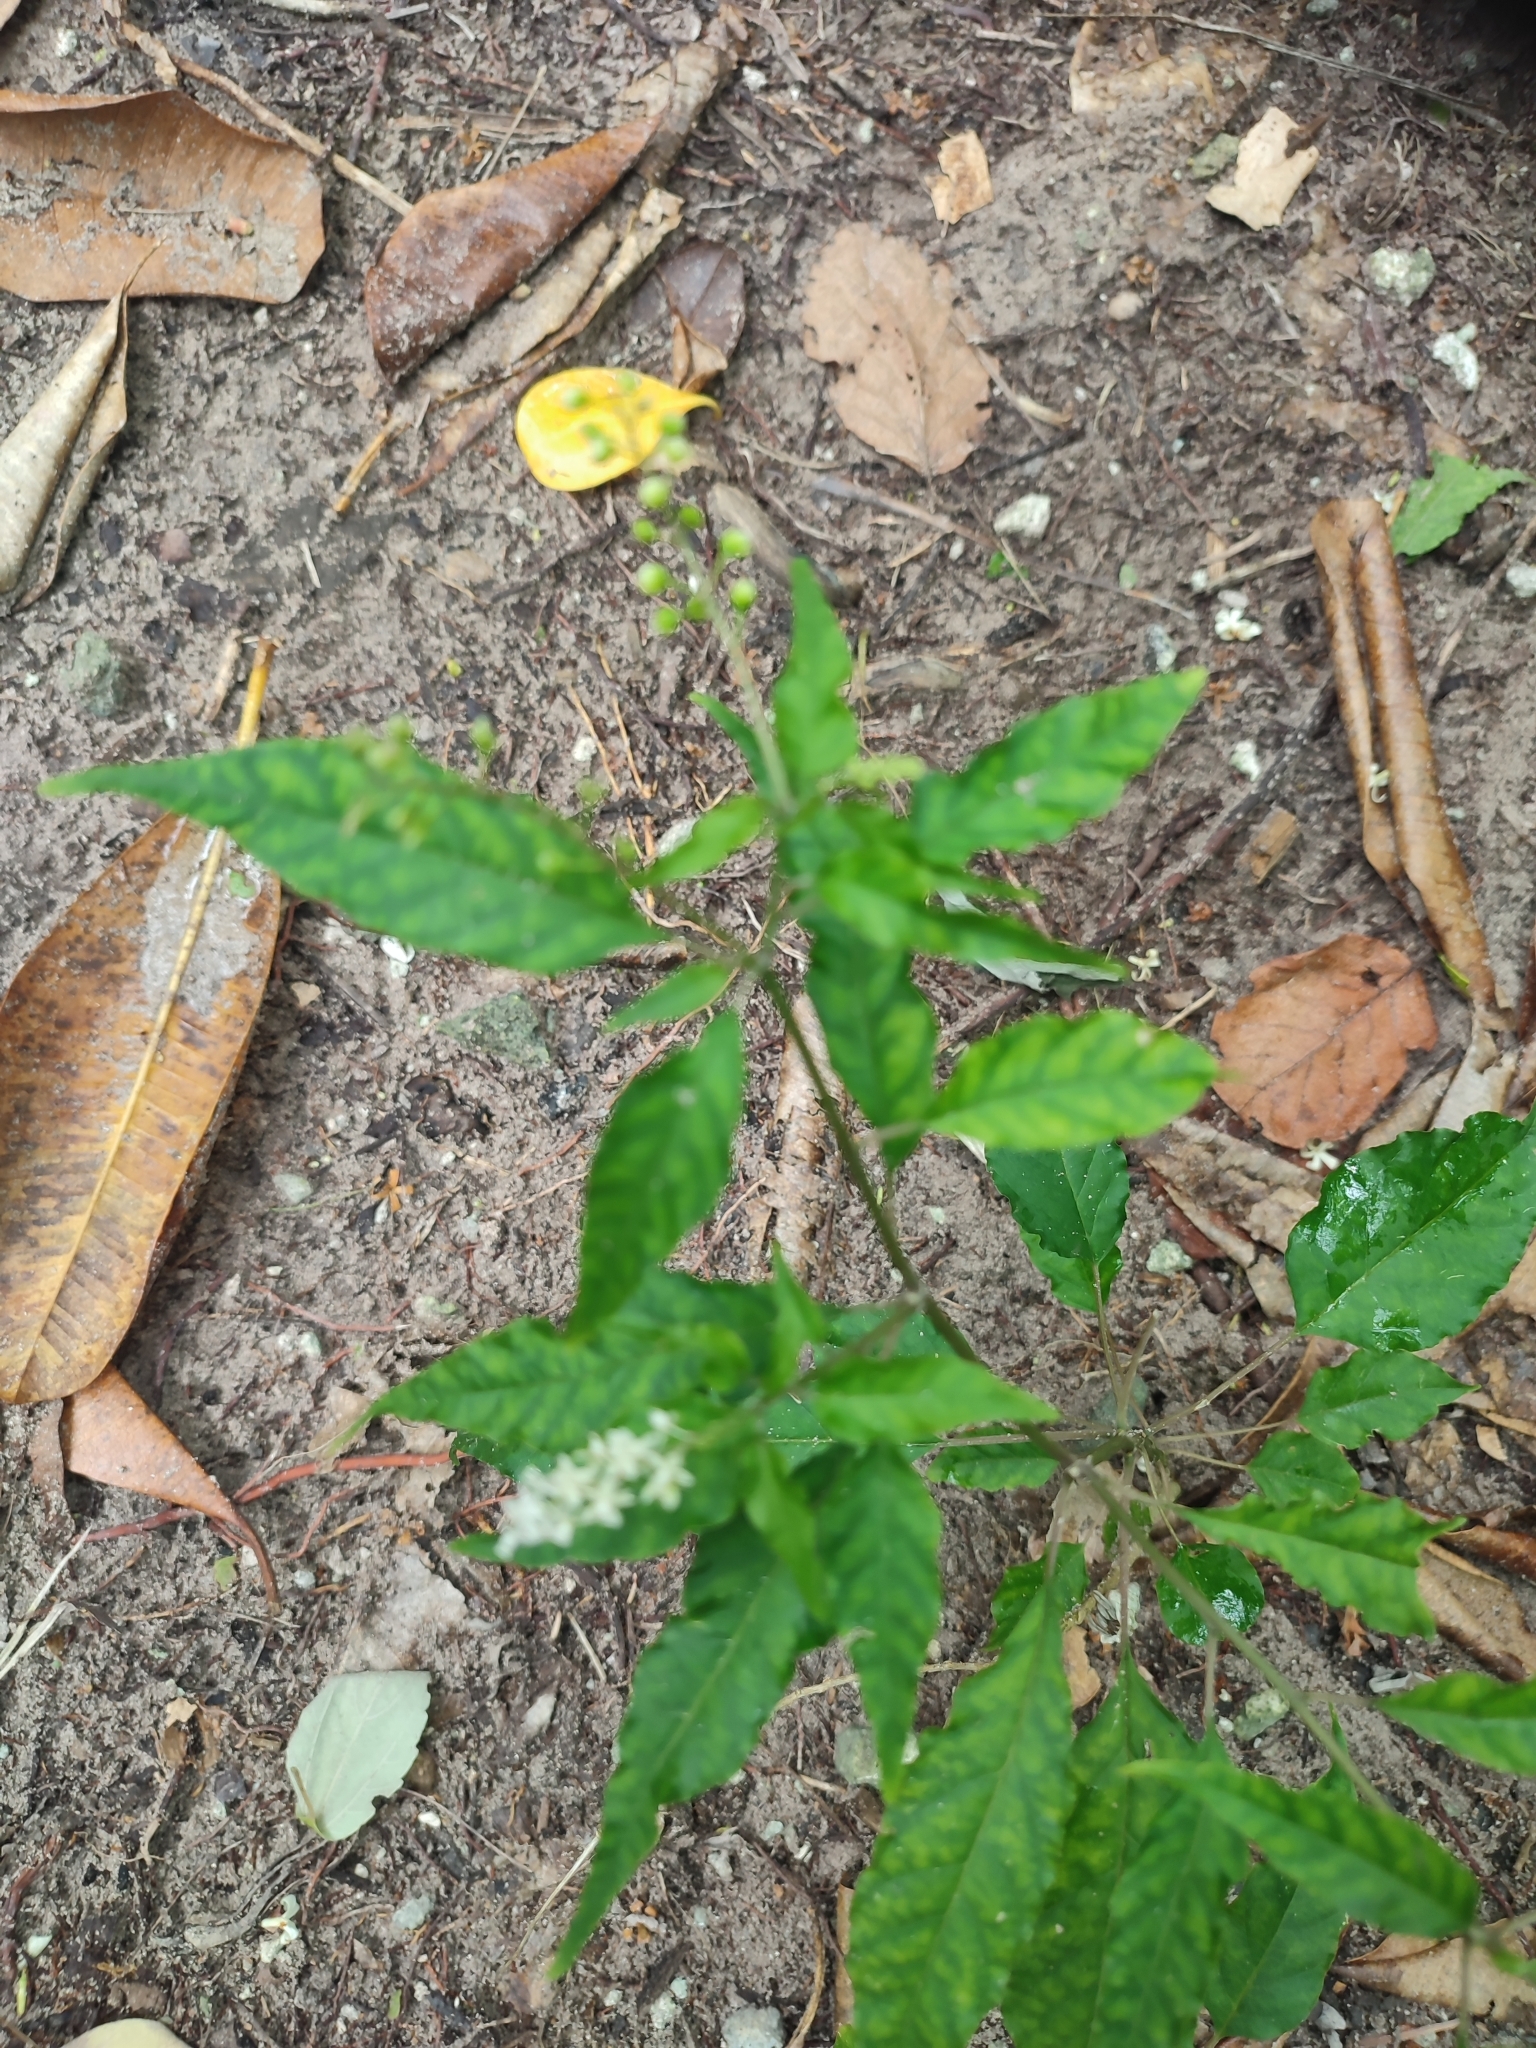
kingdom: Plantae
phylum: Tracheophyta
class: Magnoliopsida
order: Caryophyllales
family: Phytolaccaceae
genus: Rivina
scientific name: Rivina humilis
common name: Rougeplant
